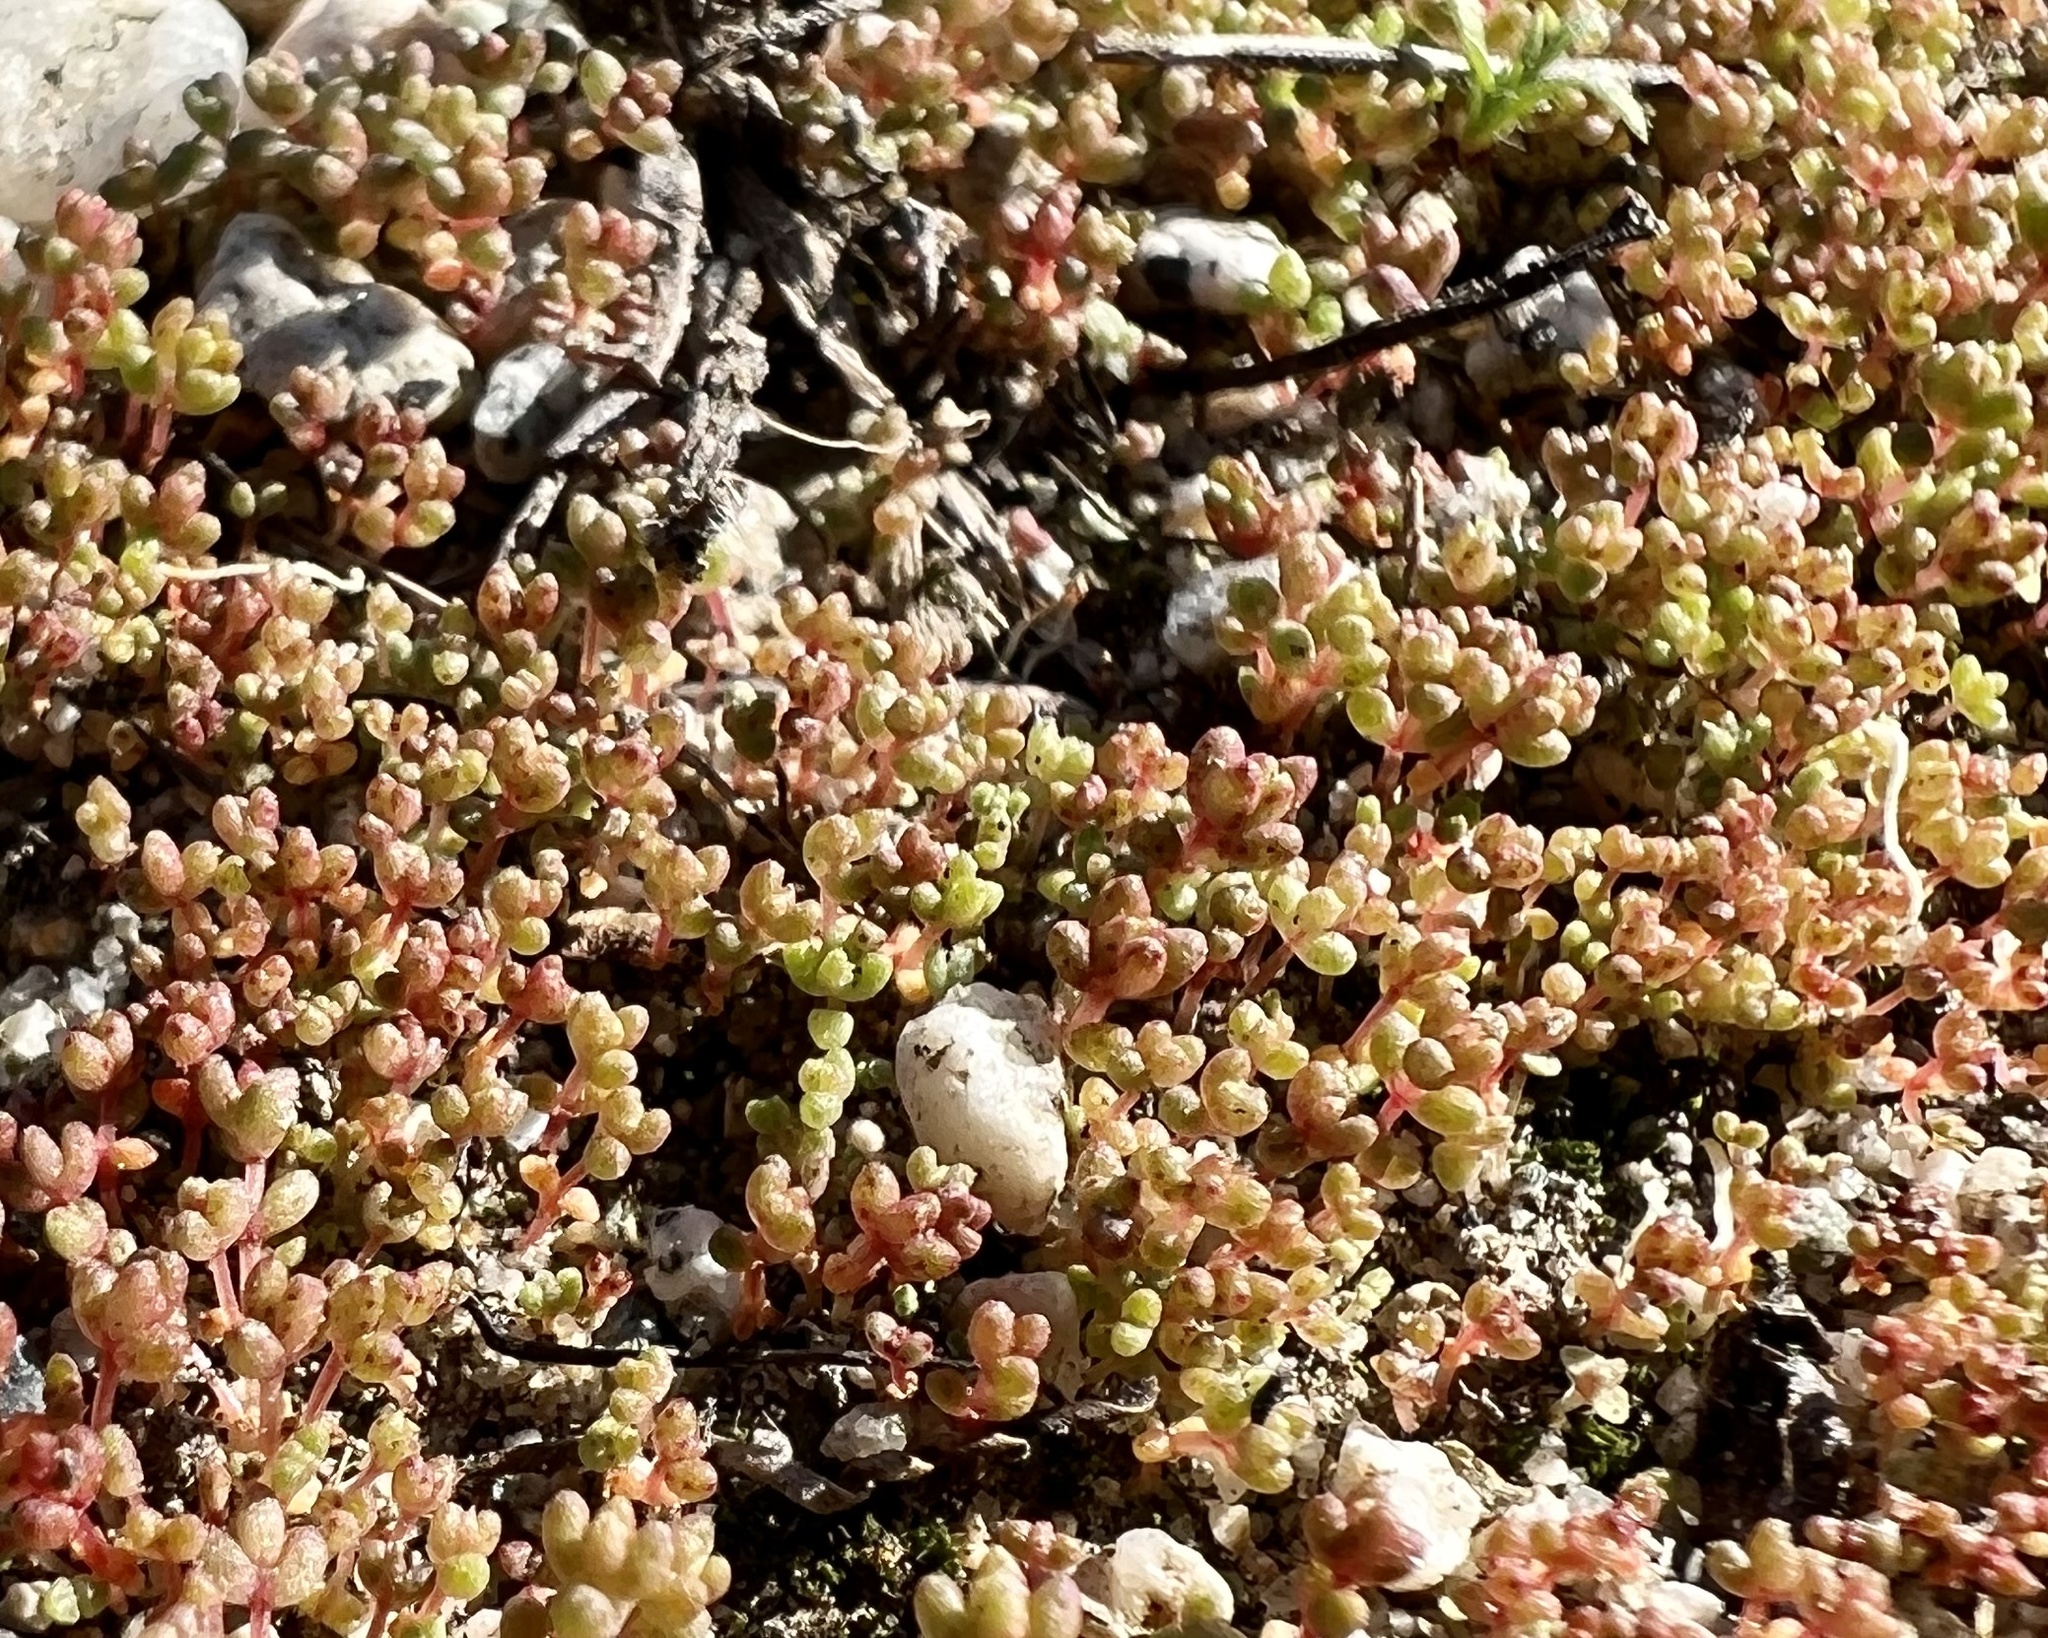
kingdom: Plantae
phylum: Tracheophyta
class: Magnoliopsida
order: Saxifragales
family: Crassulaceae
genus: Crassula
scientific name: Crassula connata
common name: Erect pygmyweed
